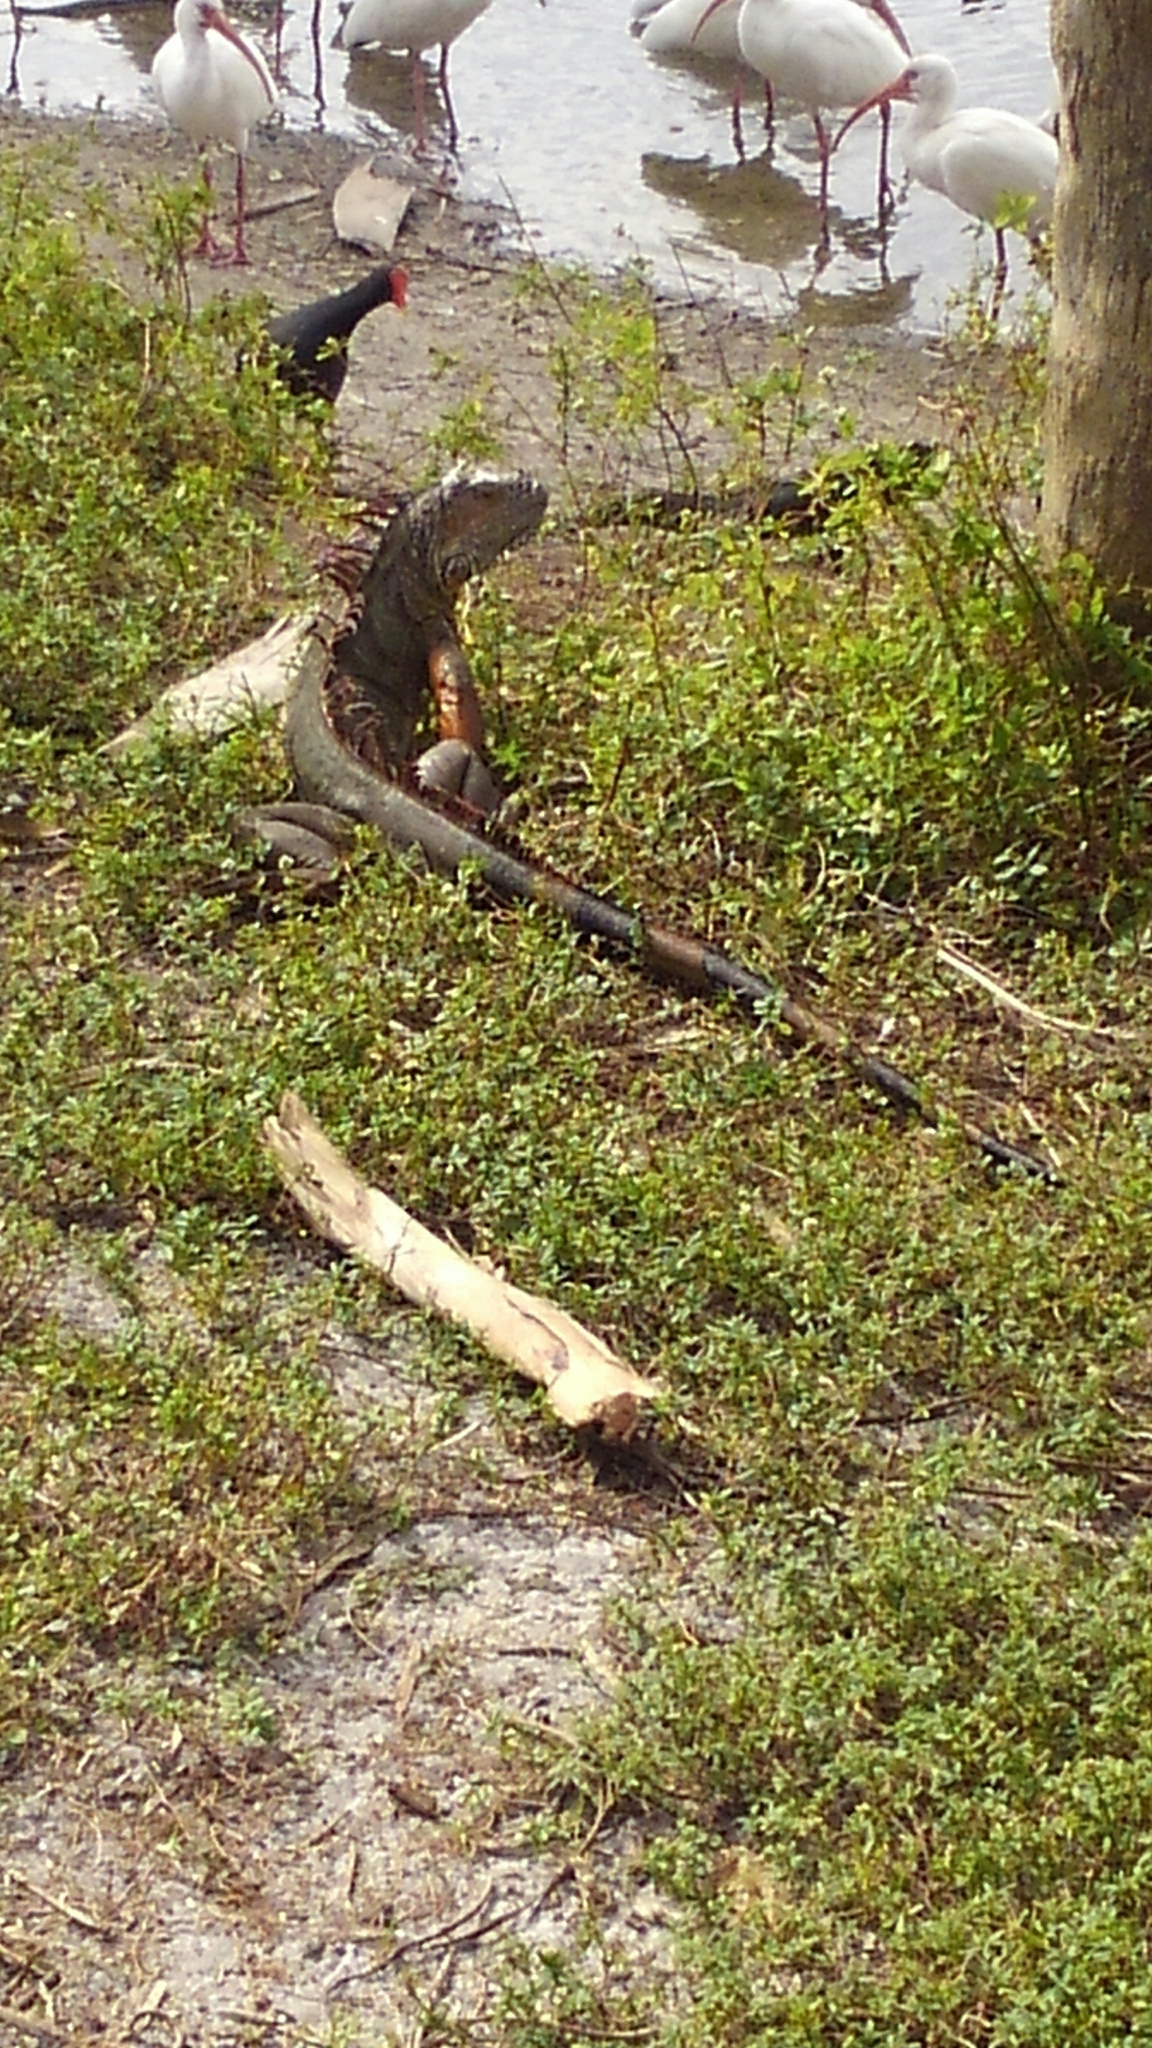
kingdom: Animalia
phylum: Chordata
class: Squamata
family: Iguanidae
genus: Iguana
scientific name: Iguana iguana
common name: Green iguana
